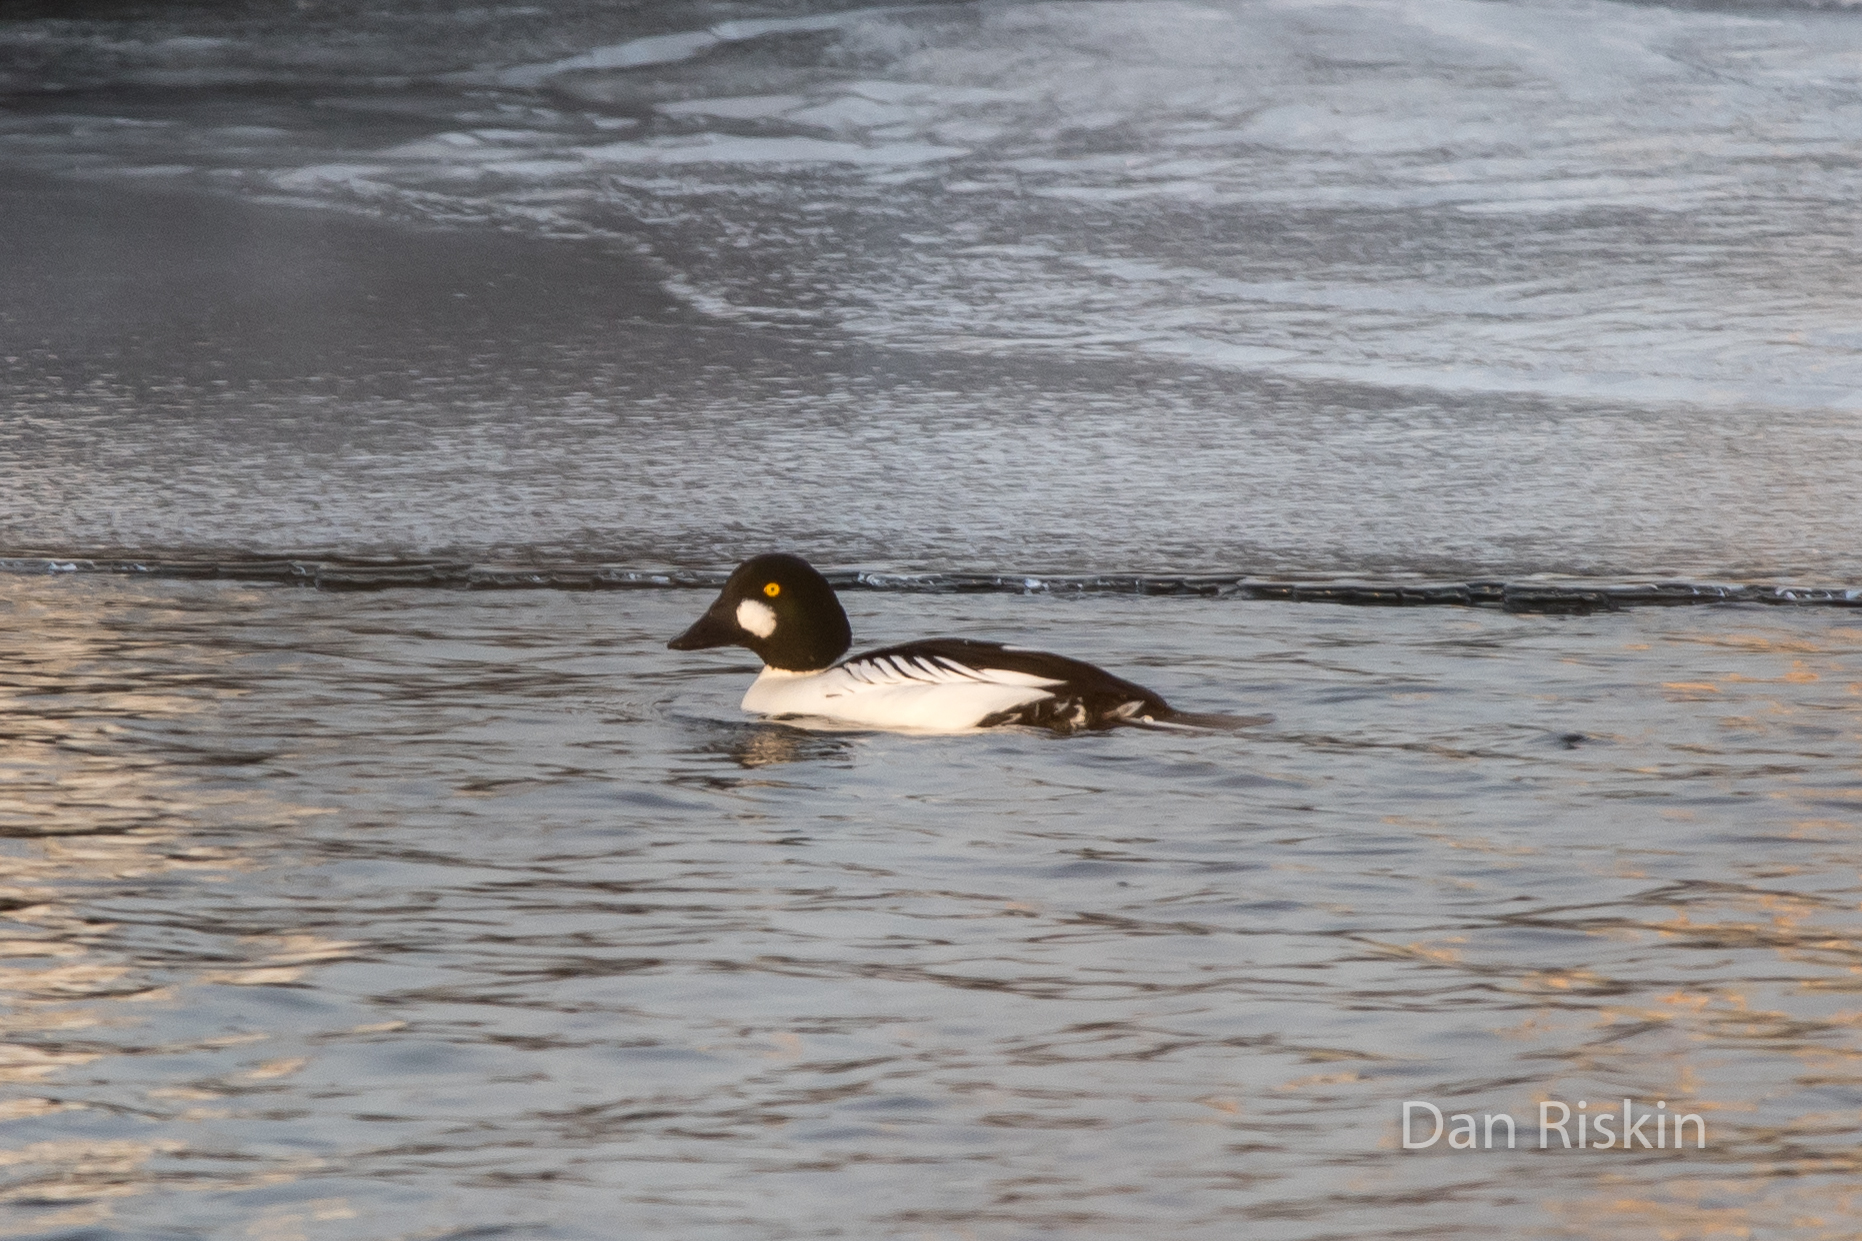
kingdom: Animalia
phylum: Chordata
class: Aves
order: Anseriformes
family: Anatidae
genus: Bucephala
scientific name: Bucephala clangula
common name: Common goldeneye
